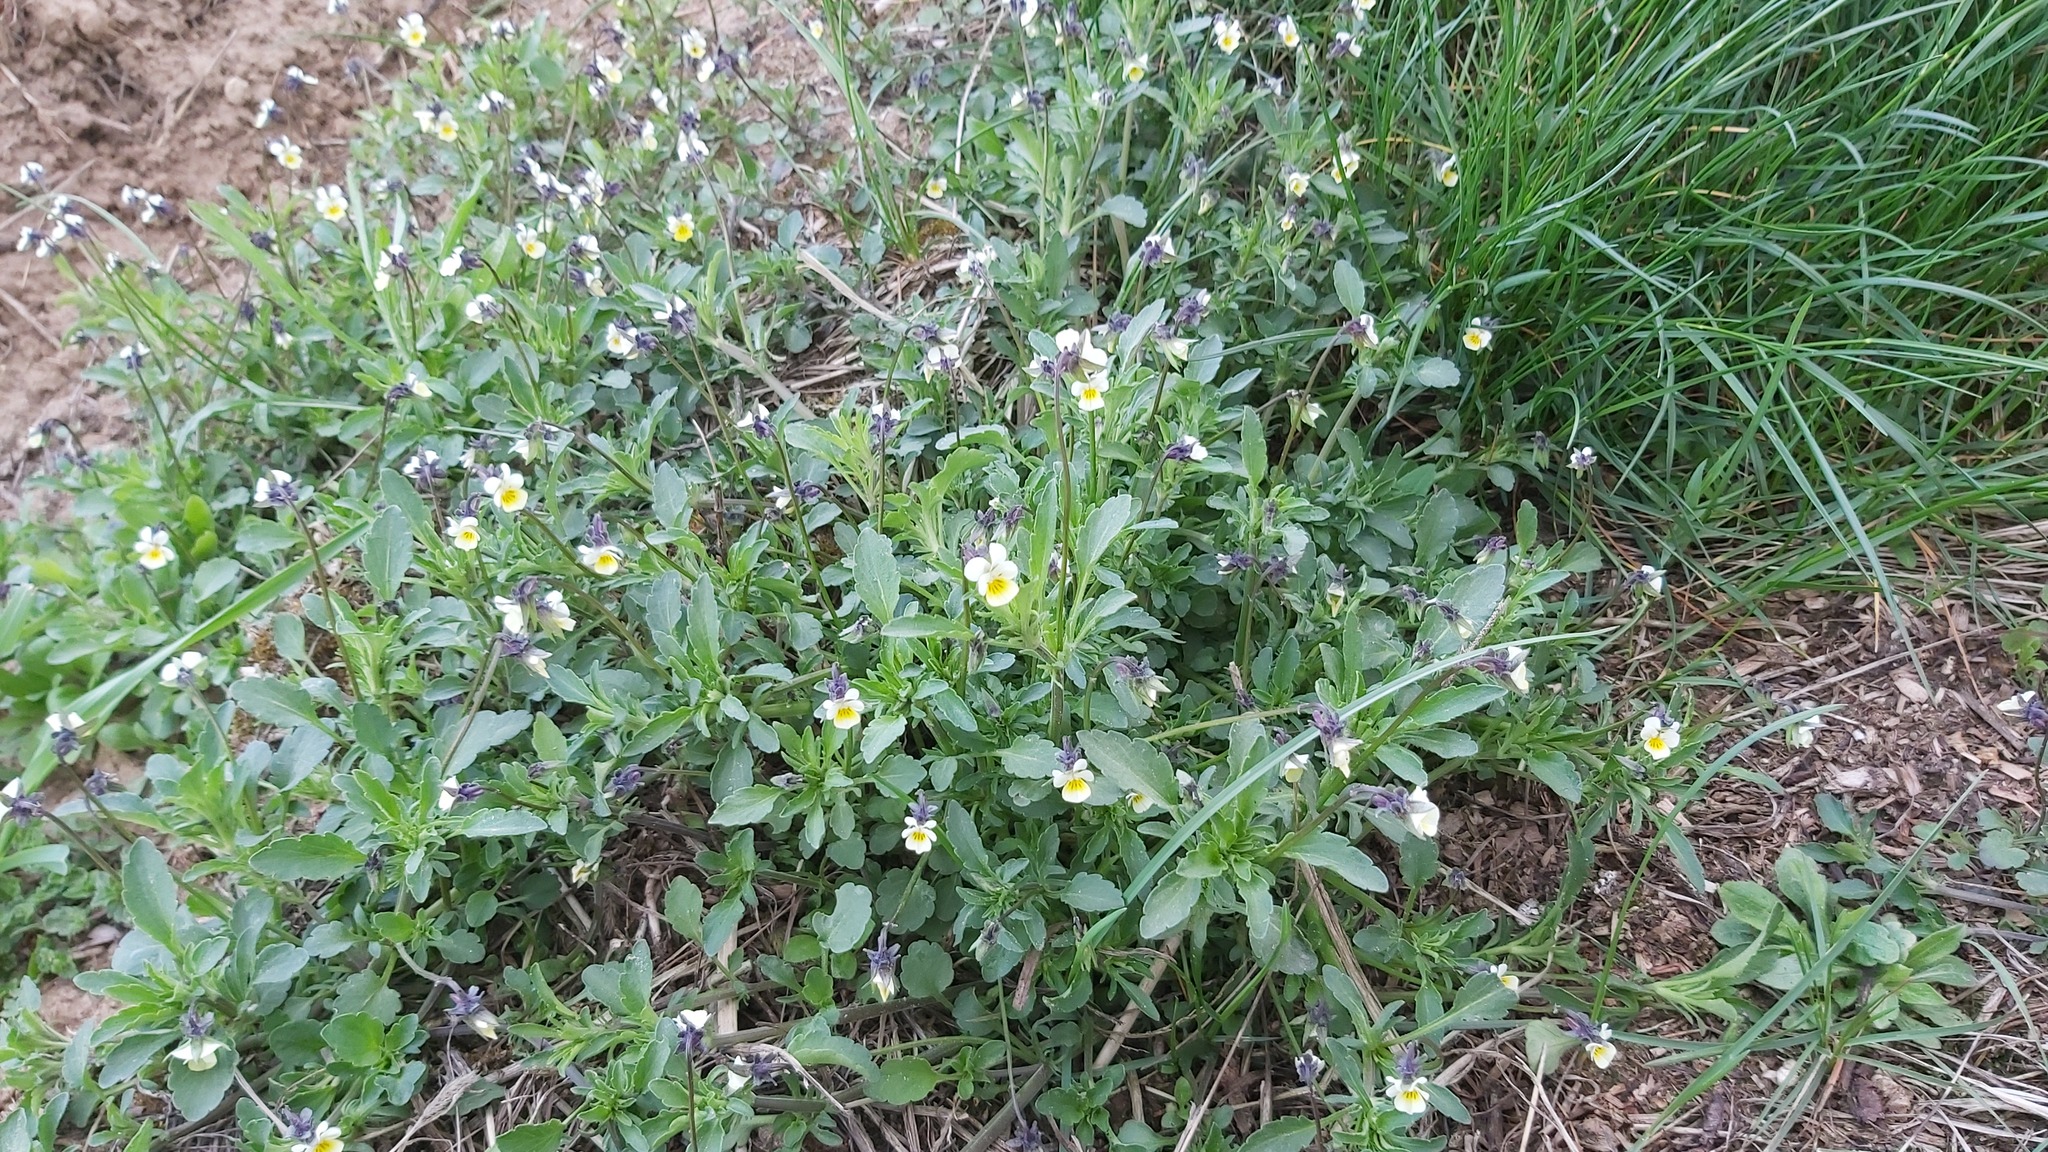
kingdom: Plantae
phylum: Tracheophyta
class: Magnoliopsida
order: Malpighiales
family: Violaceae
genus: Viola
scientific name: Viola arvensis
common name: Field pansy
